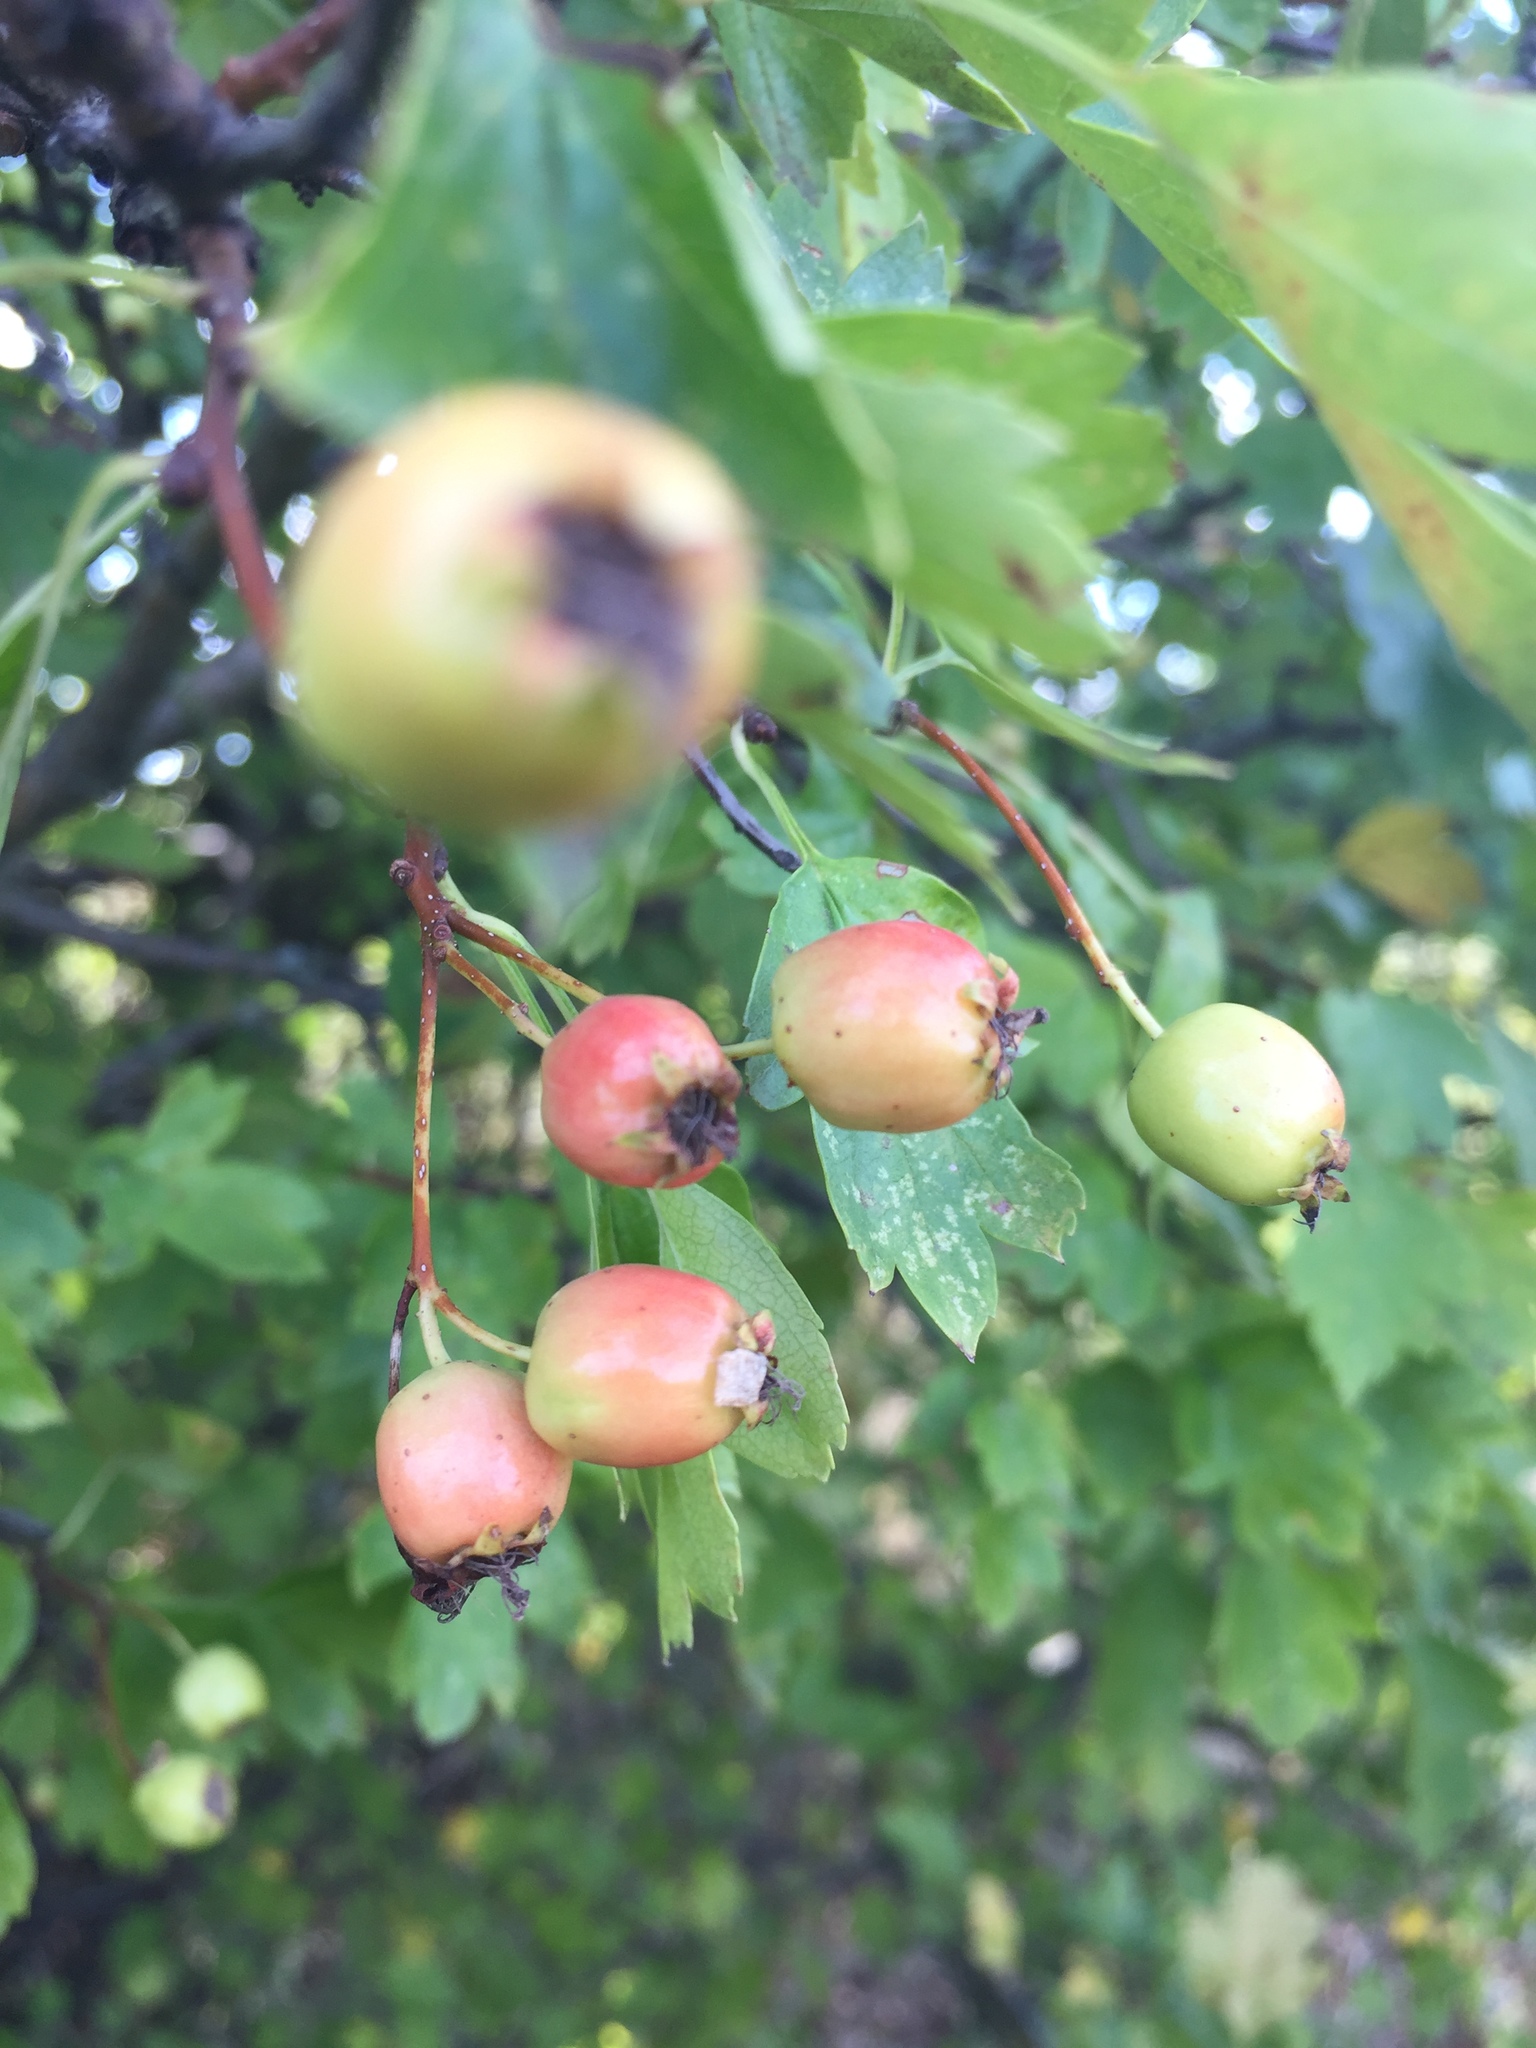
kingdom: Plantae
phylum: Tracheophyta
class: Magnoliopsida
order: Rosales
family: Rosaceae
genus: Crataegus
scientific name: Crataegus monogyna
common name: Hawthorn
